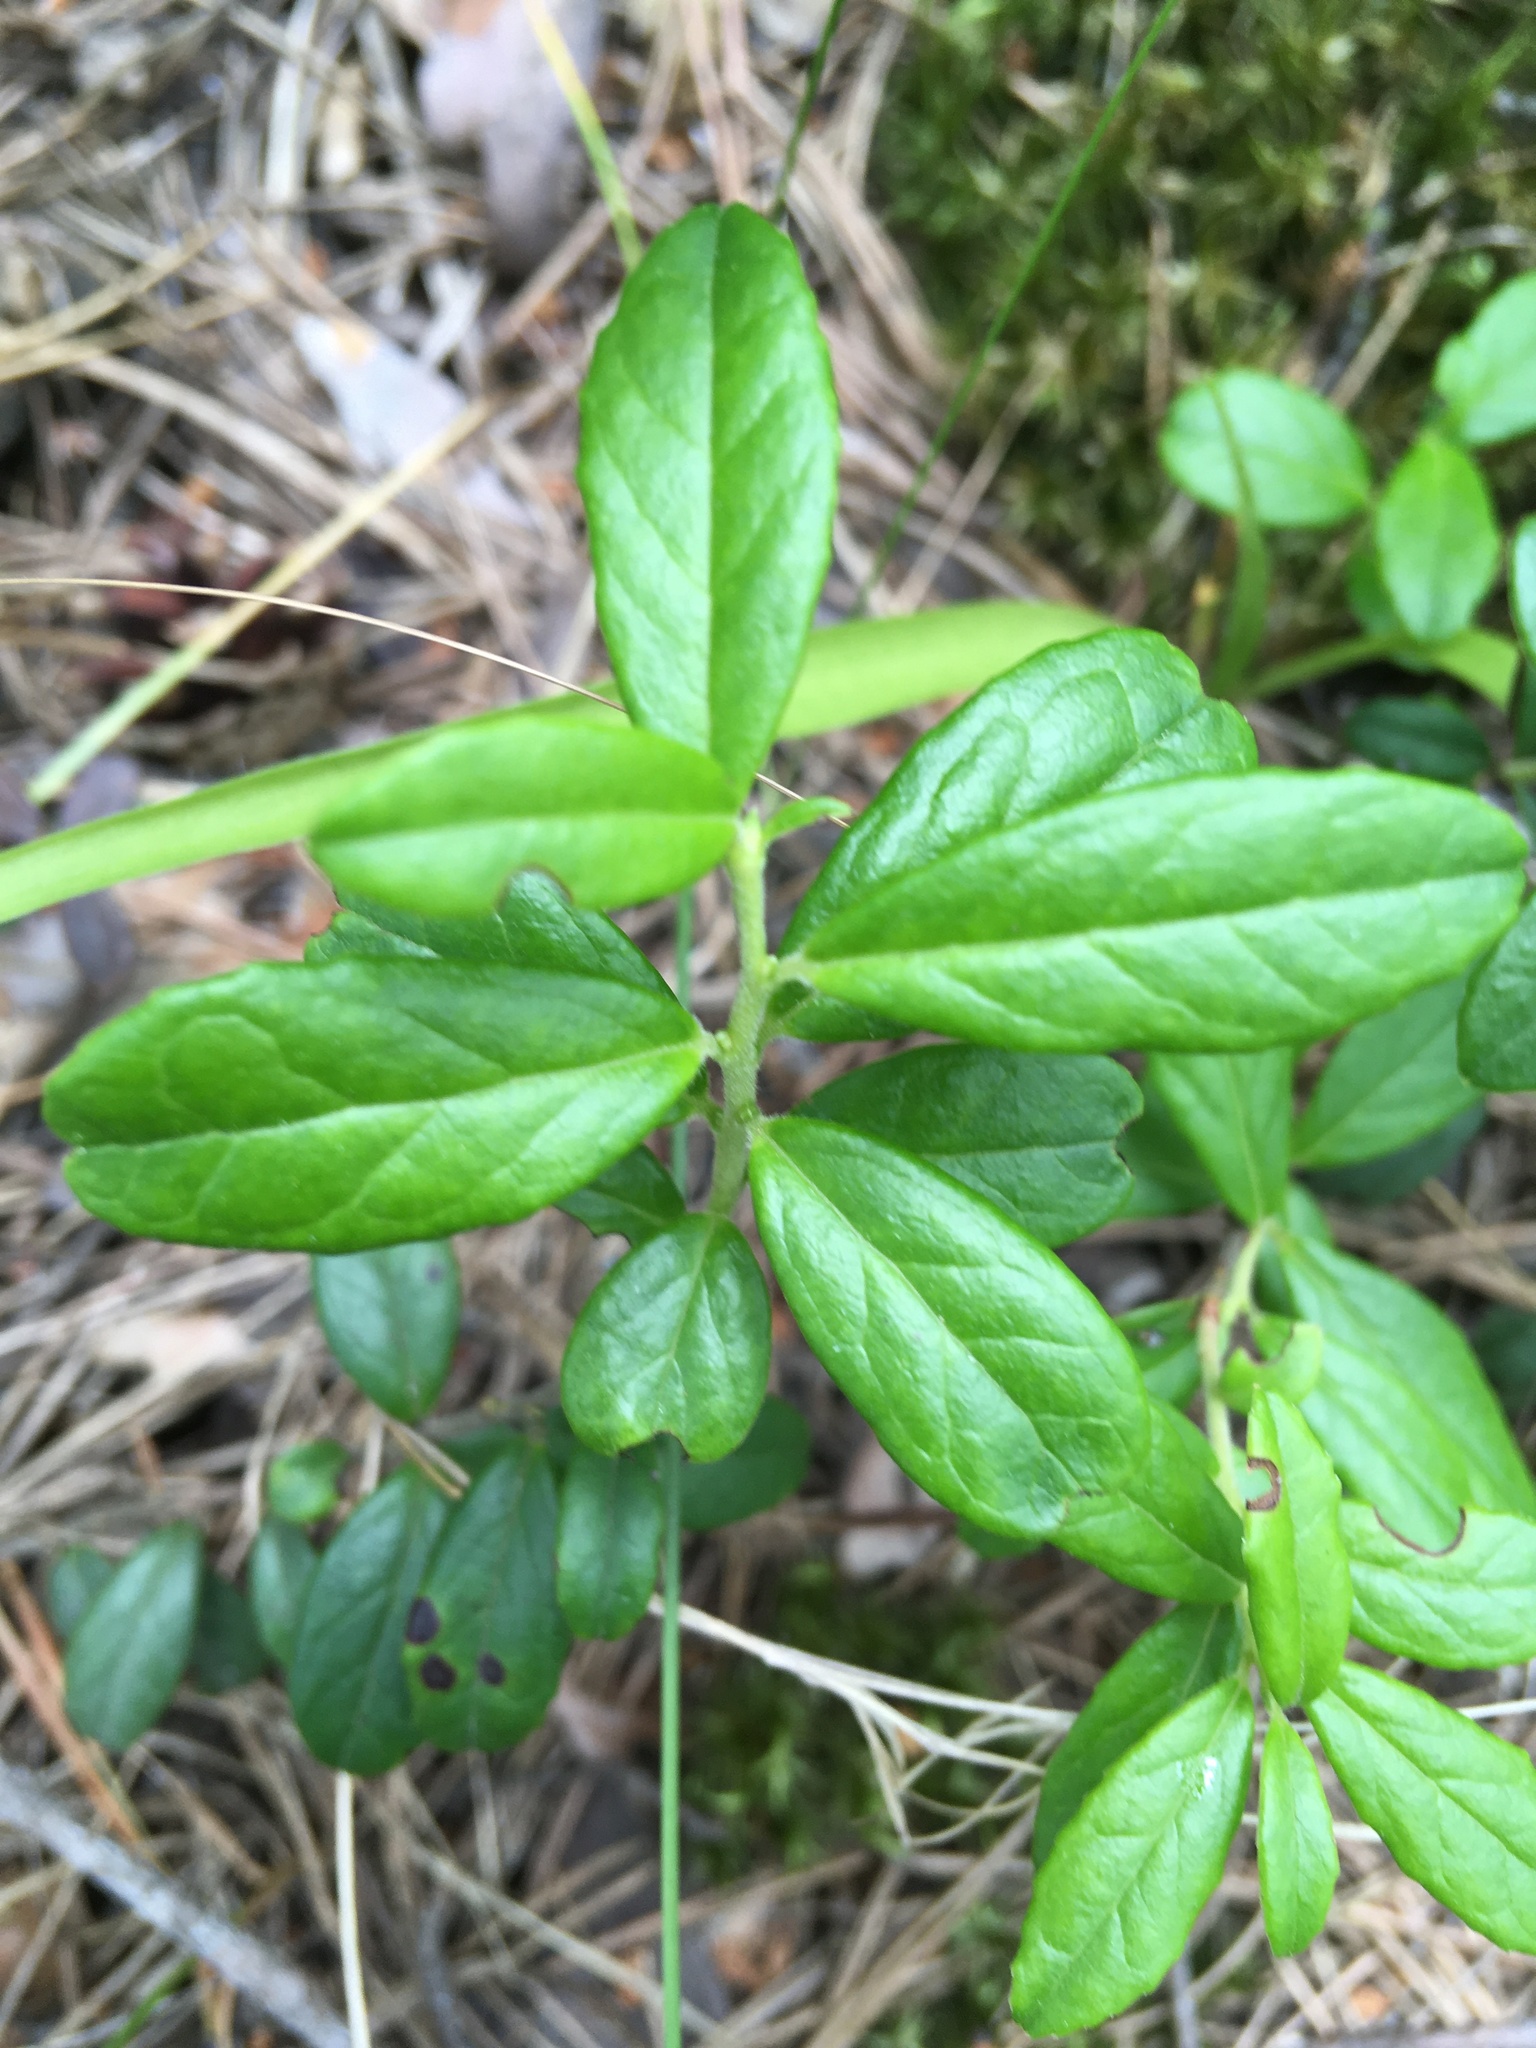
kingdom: Plantae
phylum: Tracheophyta
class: Magnoliopsida
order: Ericales
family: Ericaceae
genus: Vaccinium
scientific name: Vaccinium vitis-idaea
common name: Cowberry
